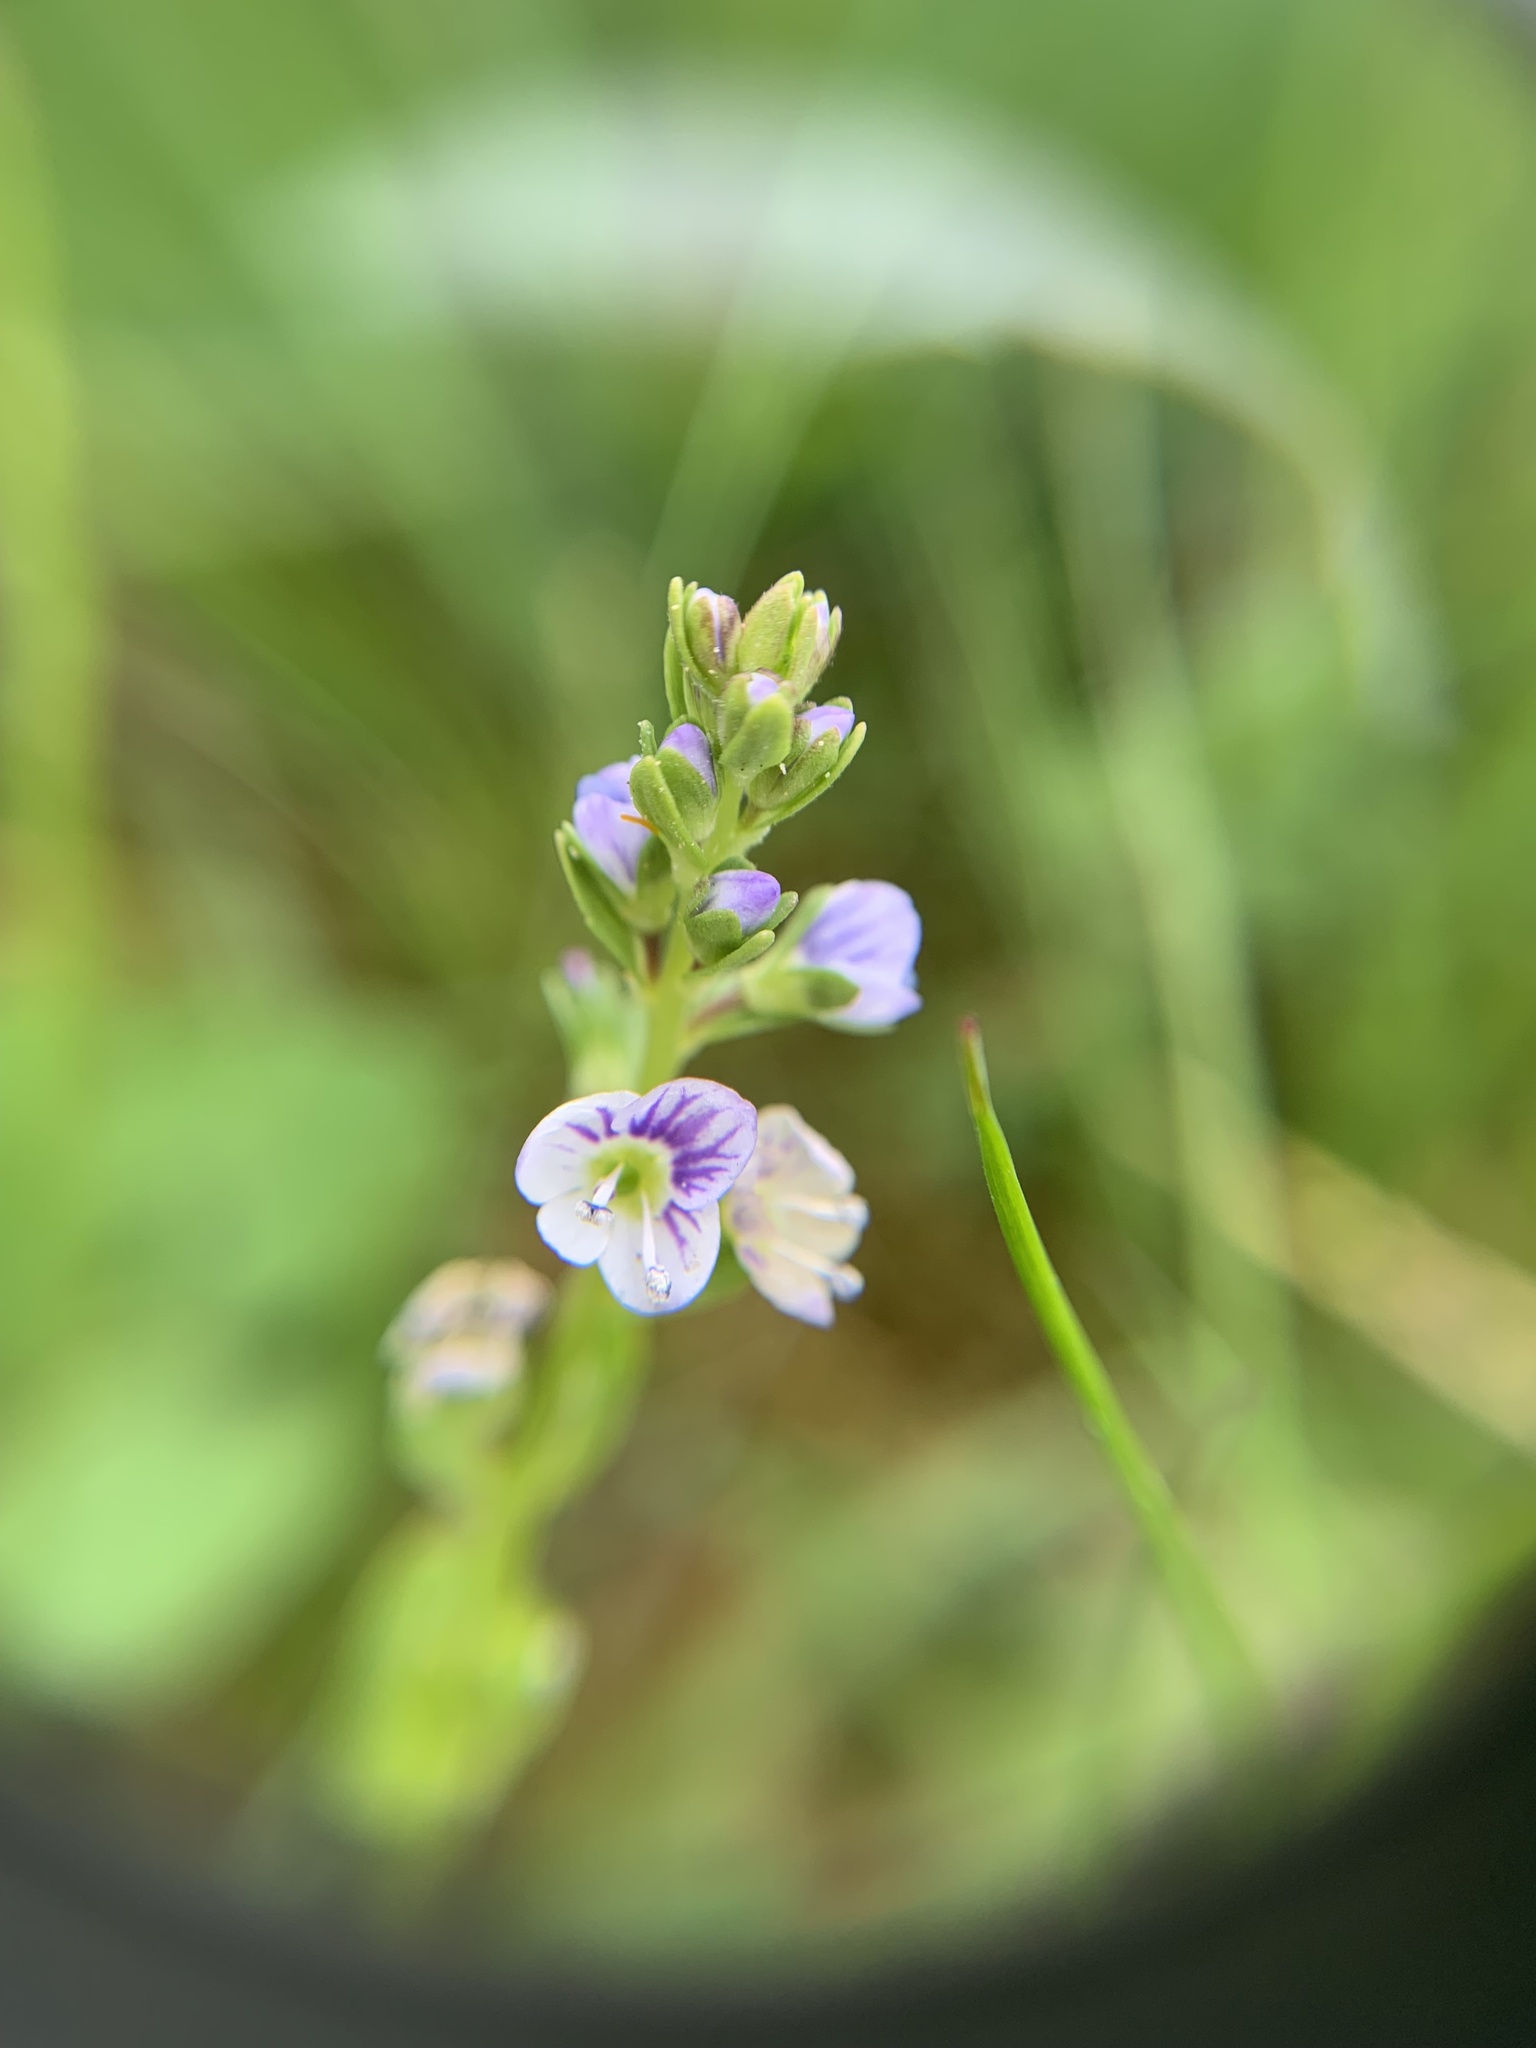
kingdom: Plantae
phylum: Tracheophyta
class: Magnoliopsida
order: Lamiales
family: Plantaginaceae
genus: Veronica
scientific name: Veronica serpyllifolia
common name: Thyme-leaved speedwell
